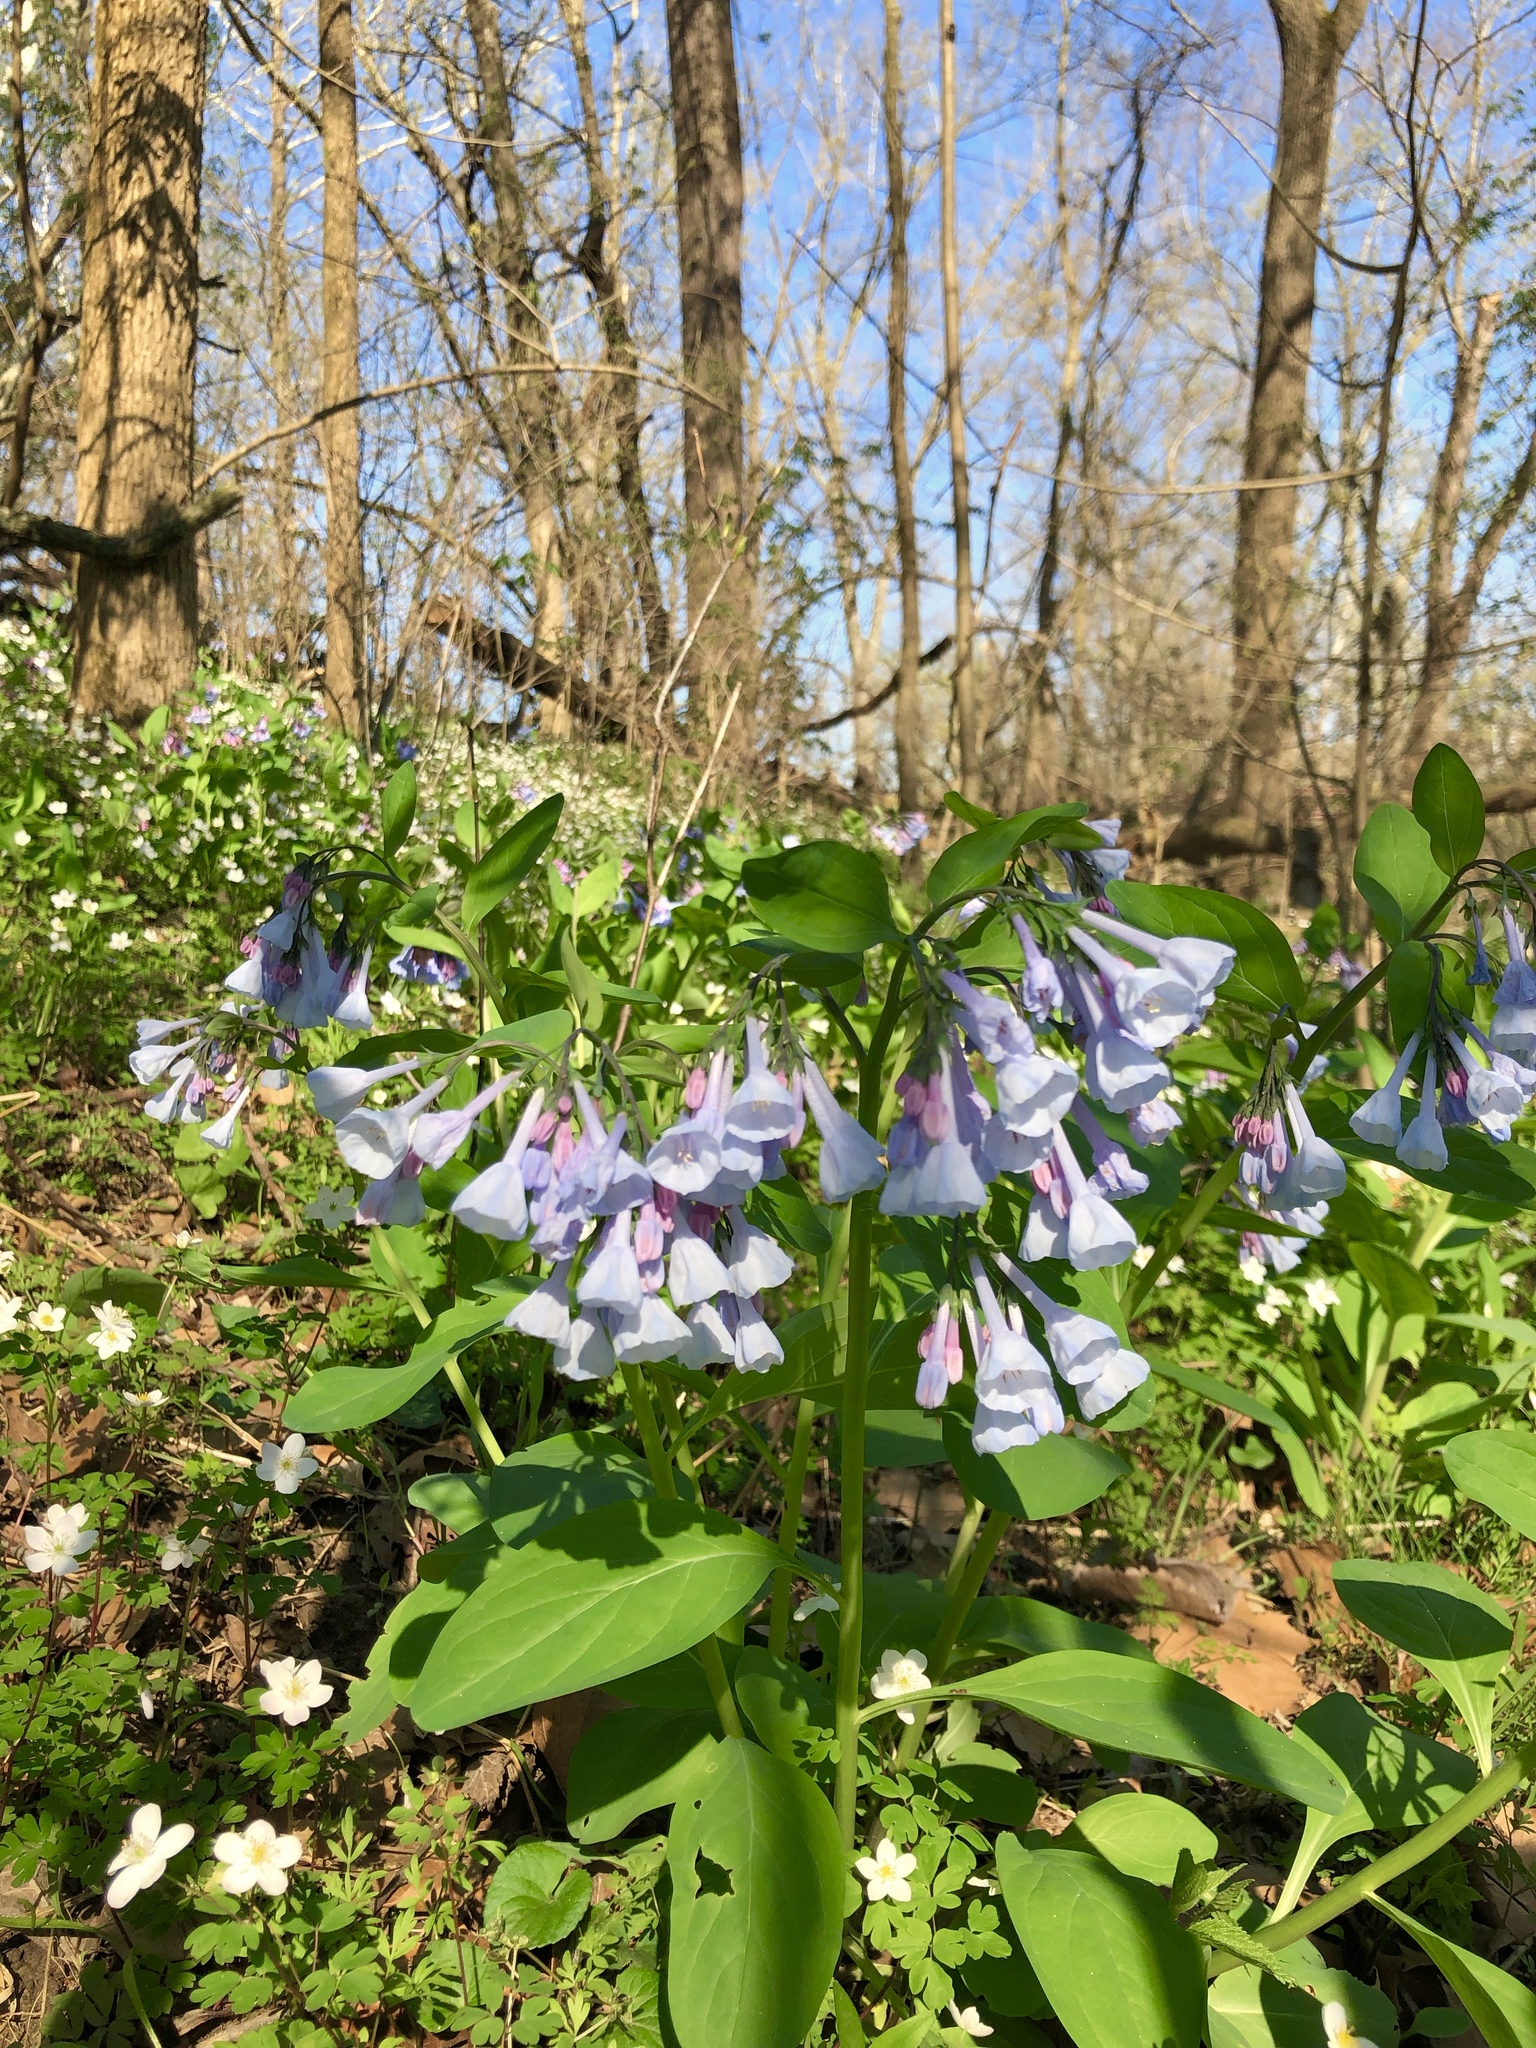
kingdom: Plantae
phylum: Tracheophyta
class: Magnoliopsida
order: Boraginales
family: Boraginaceae
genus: Mertensia
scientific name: Mertensia virginica
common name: Virginia bluebells
